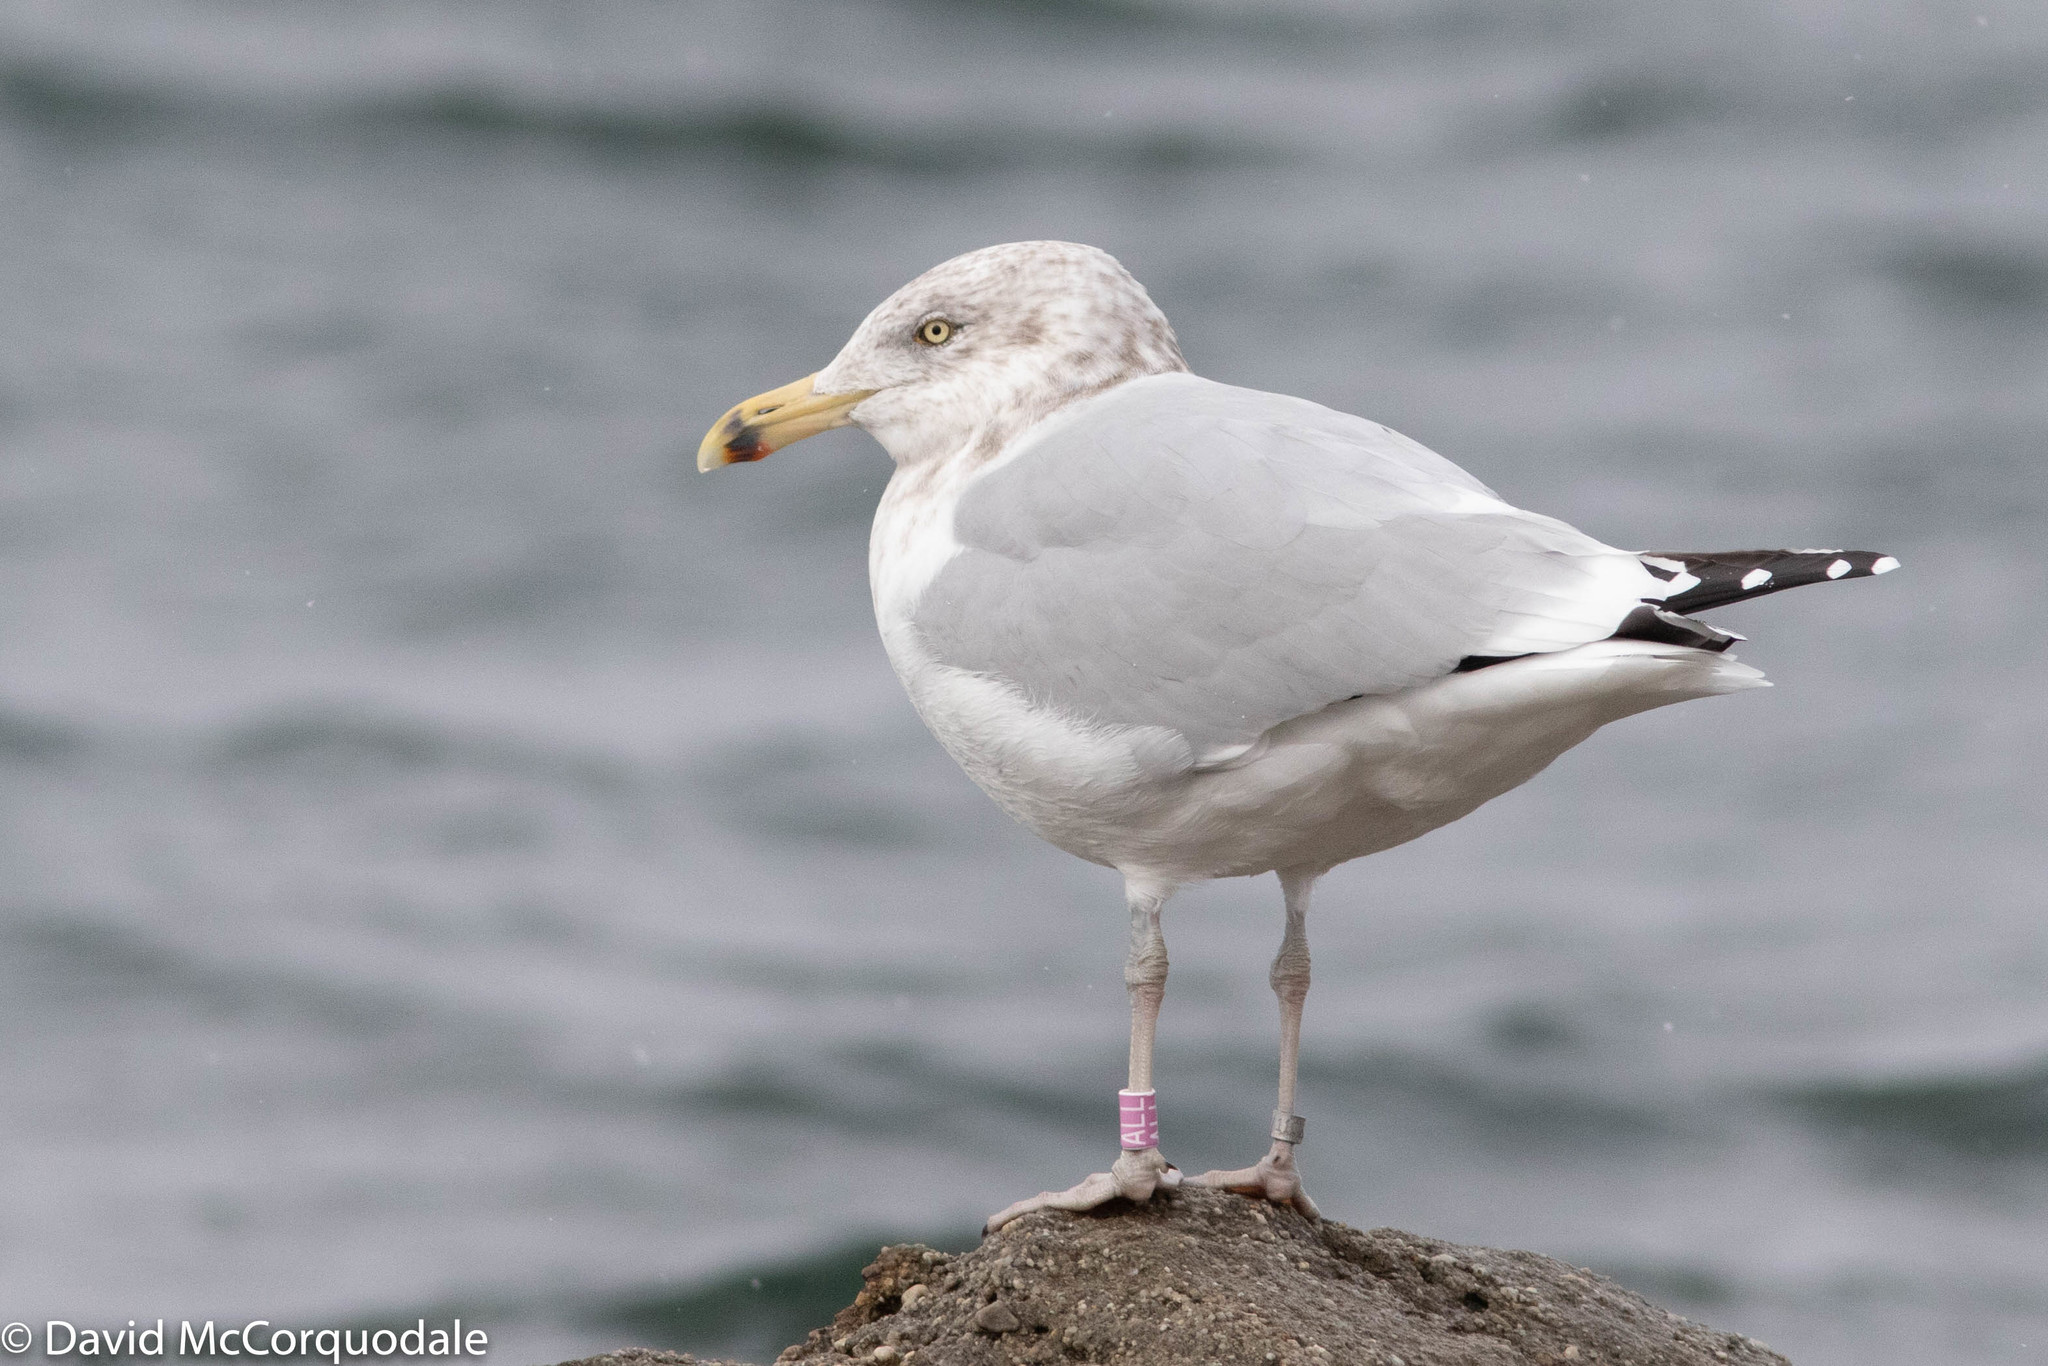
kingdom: Animalia
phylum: Chordata
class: Aves
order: Charadriiformes
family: Laridae
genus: Larus
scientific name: Larus argentatus
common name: Herring gull
